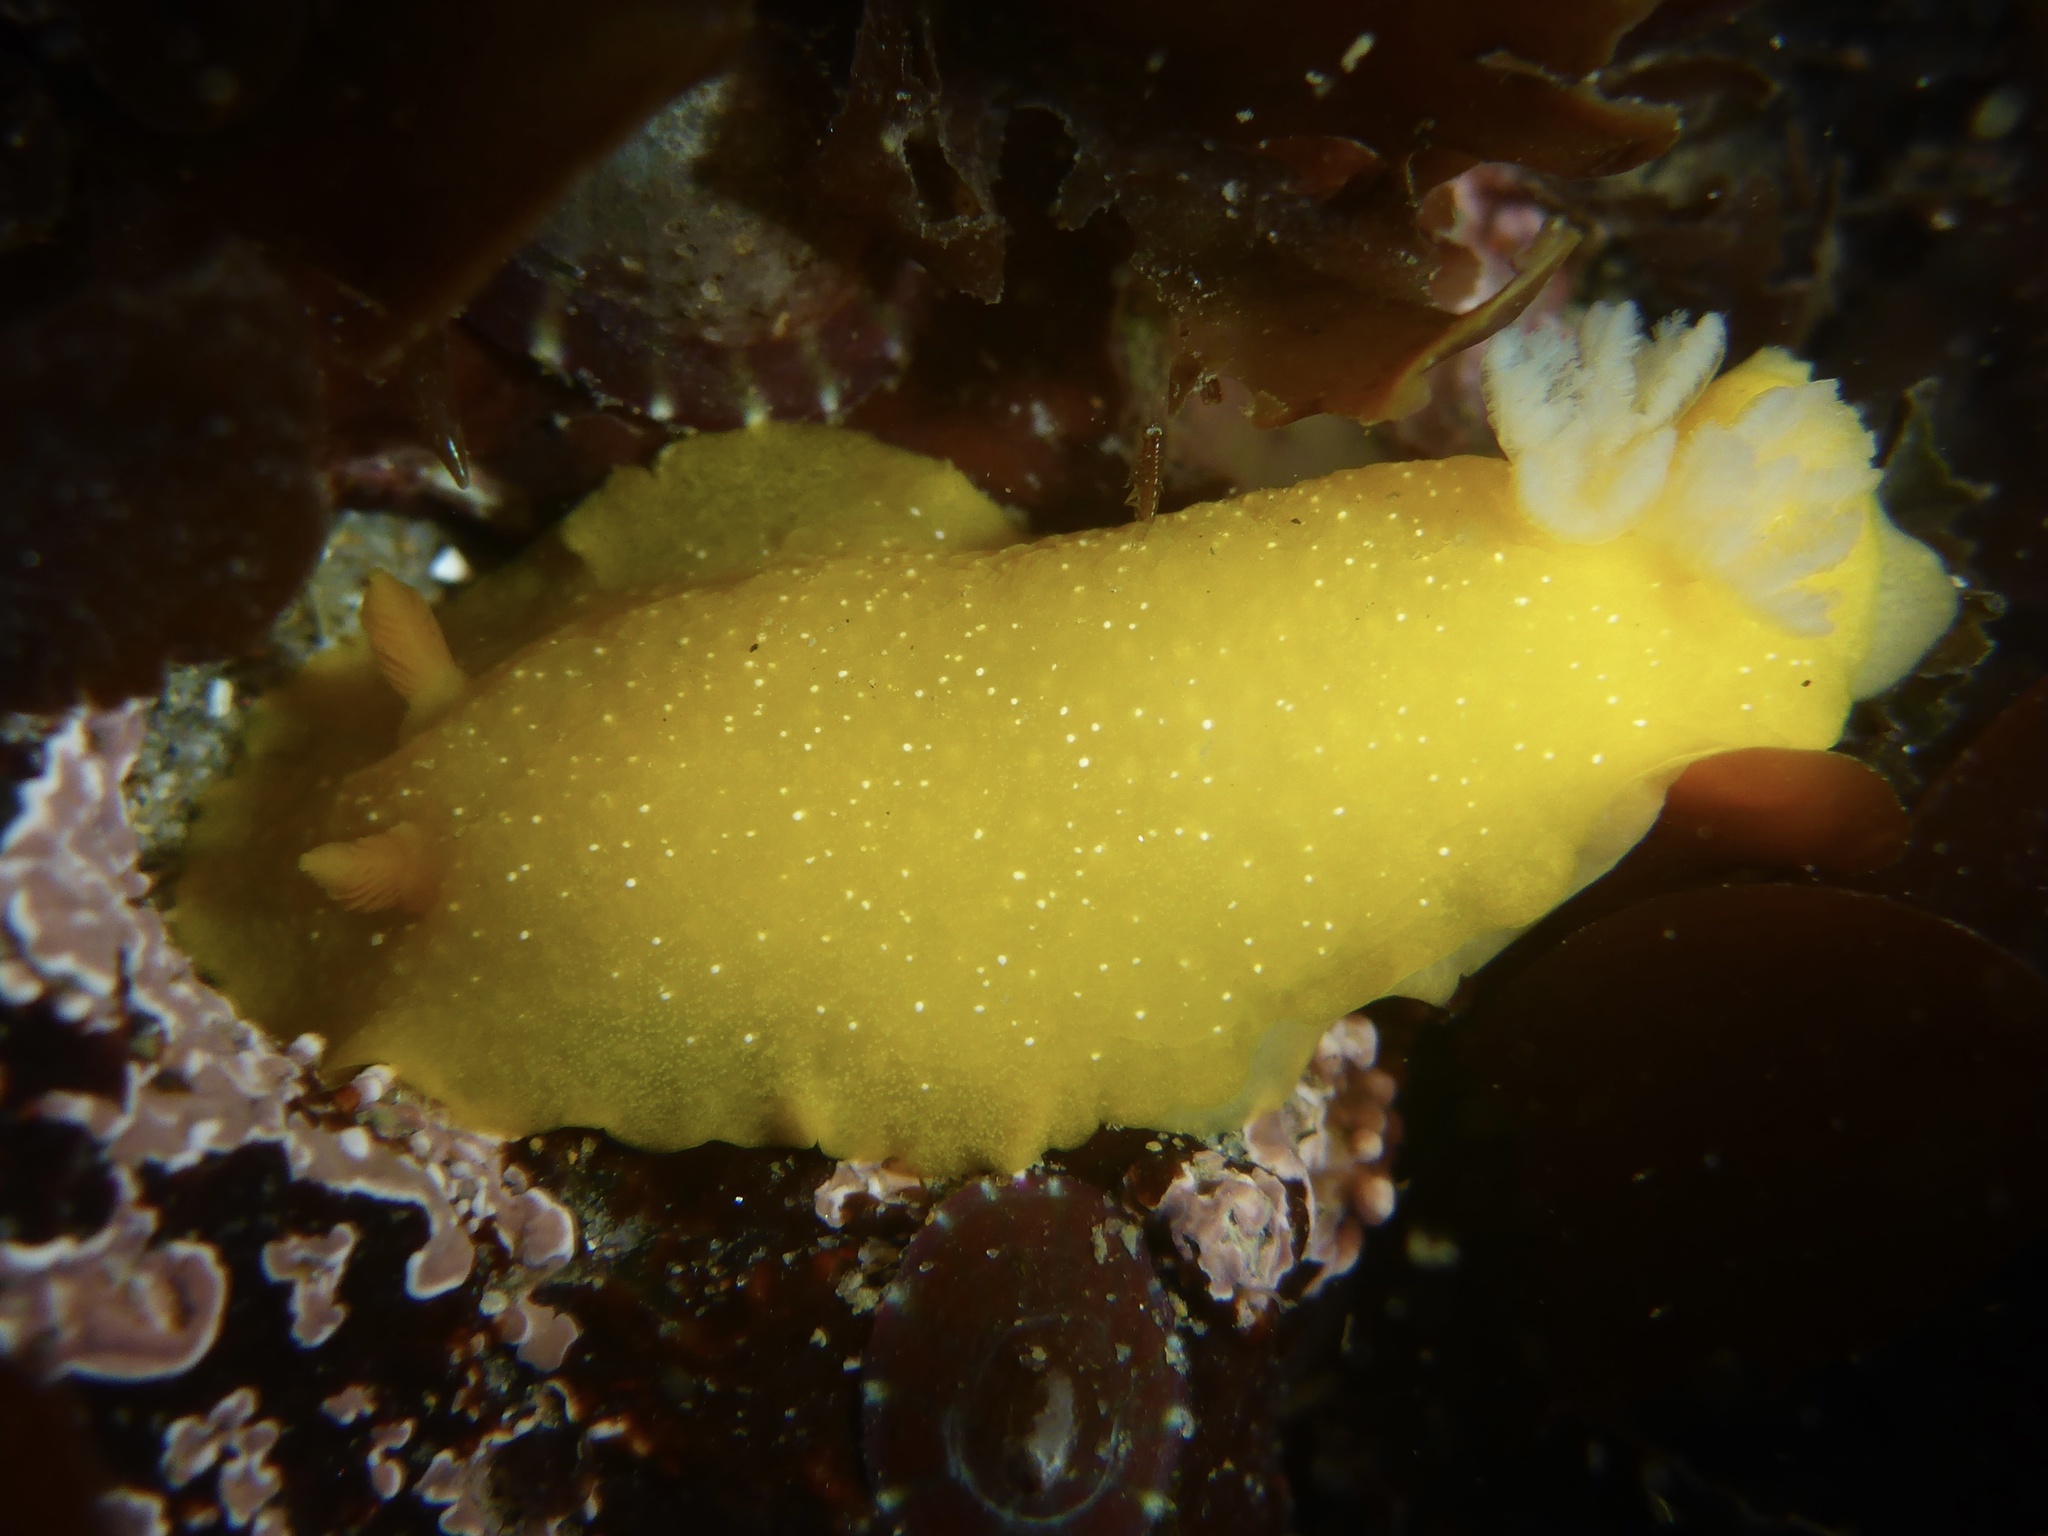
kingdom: Animalia
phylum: Mollusca
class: Gastropoda
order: Nudibranchia
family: Dendrodorididae
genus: Doriopsilla
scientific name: Doriopsilla fulva
